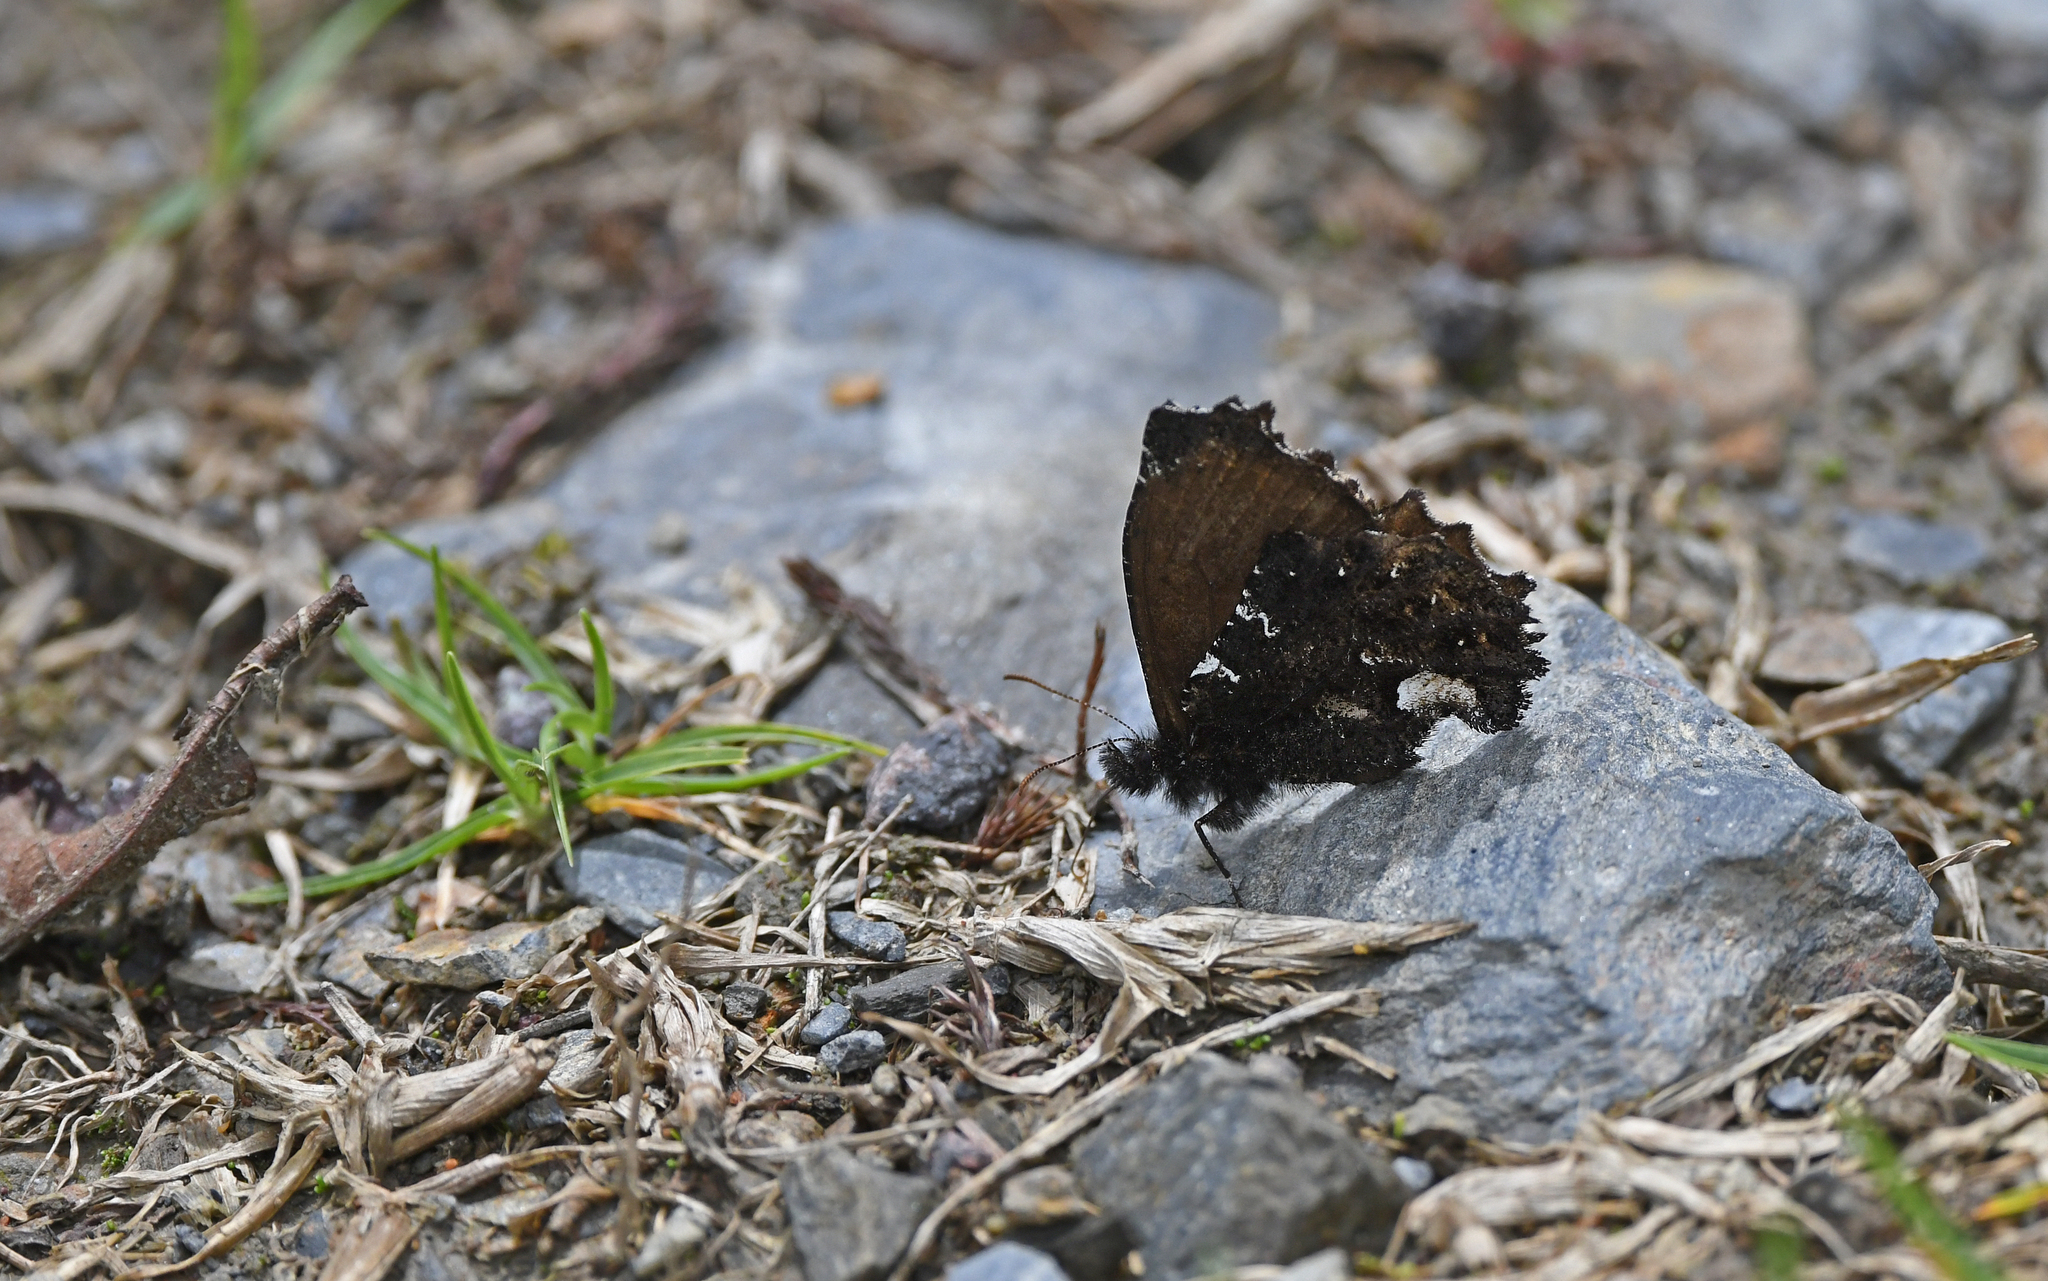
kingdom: Animalia
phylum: Arthropoda
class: Insecta
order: Lepidoptera
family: Nymphalidae
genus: Steremnia
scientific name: Steremnia monachella
